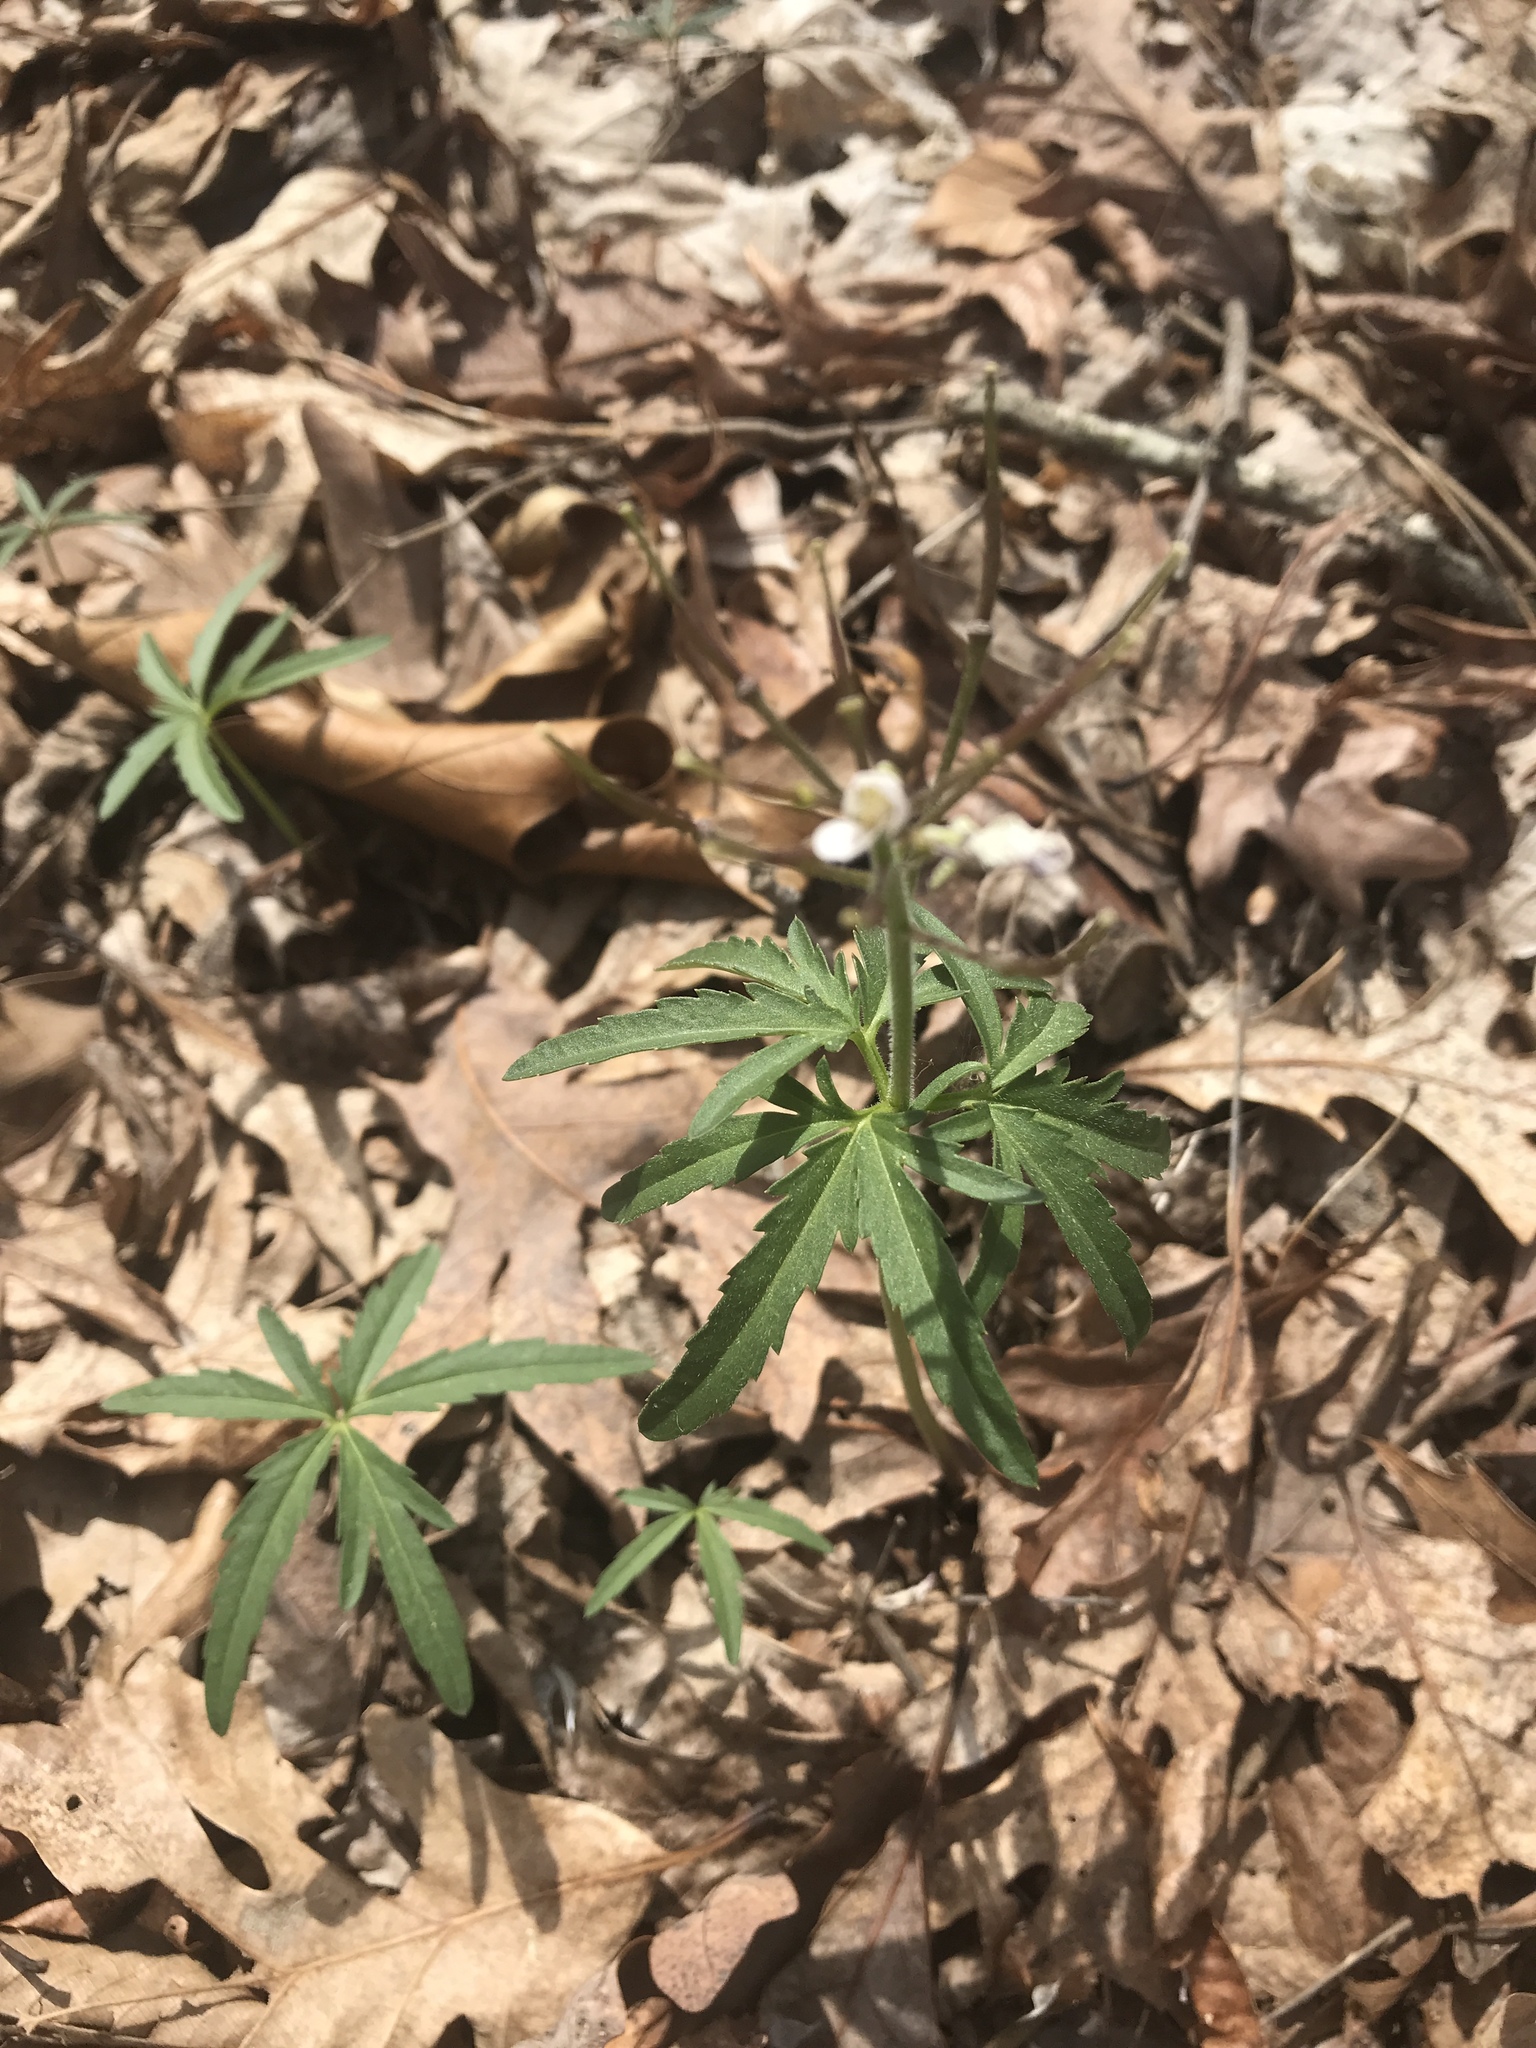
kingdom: Plantae
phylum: Tracheophyta
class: Magnoliopsida
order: Brassicales
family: Brassicaceae
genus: Cardamine
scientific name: Cardamine concatenata
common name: Cut-leaf toothcup
